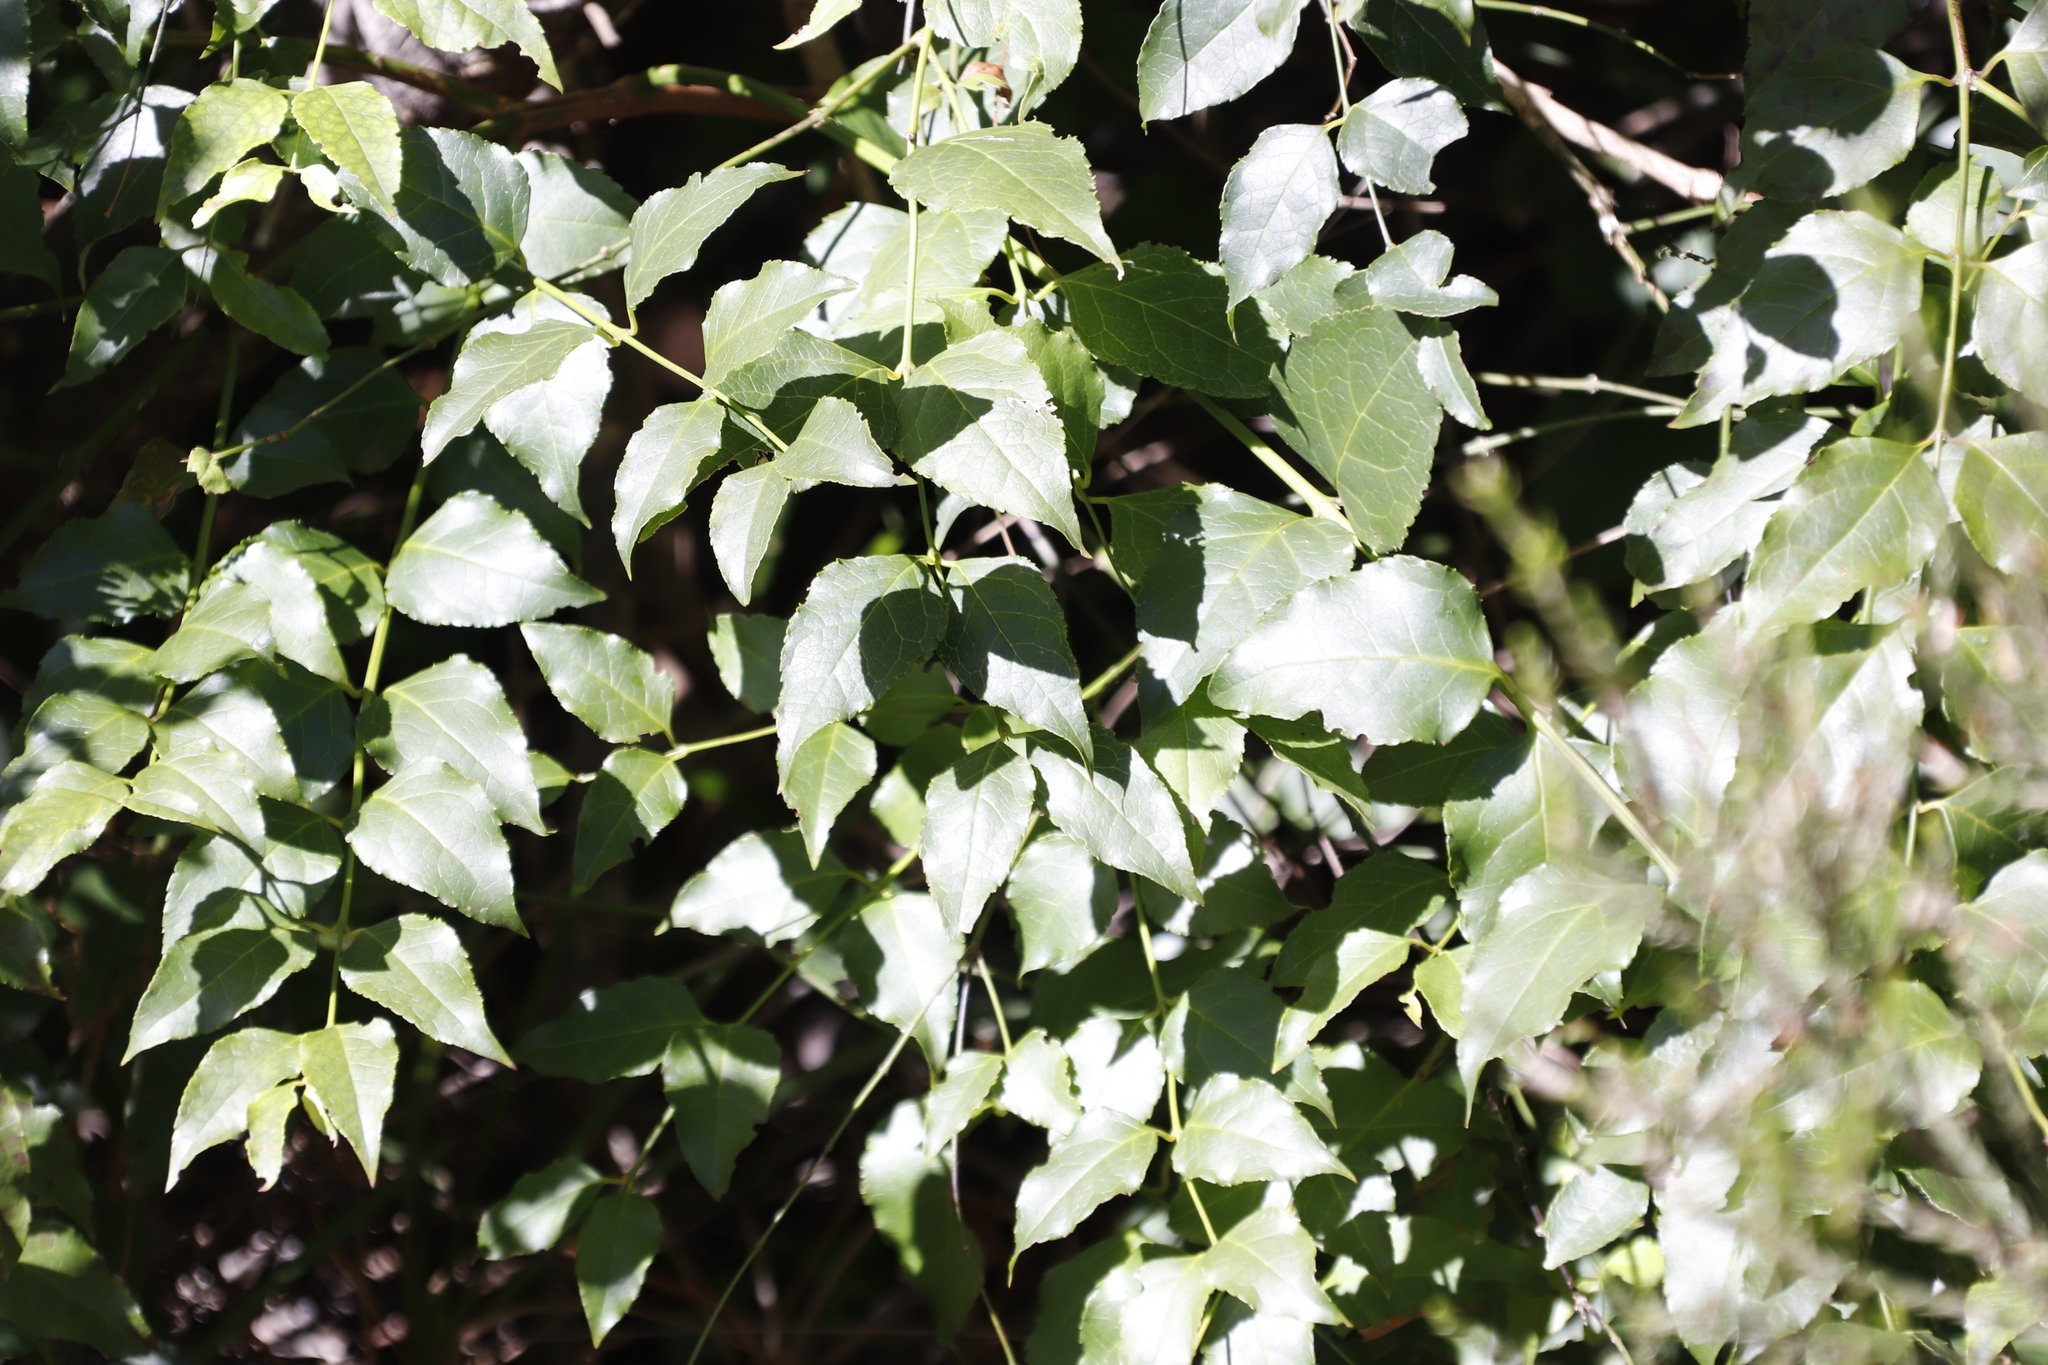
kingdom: Plantae
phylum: Tracheophyta
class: Magnoliopsida
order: Lamiales
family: Stilbaceae
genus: Halleria
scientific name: Halleria lucida
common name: Tree fuschia
